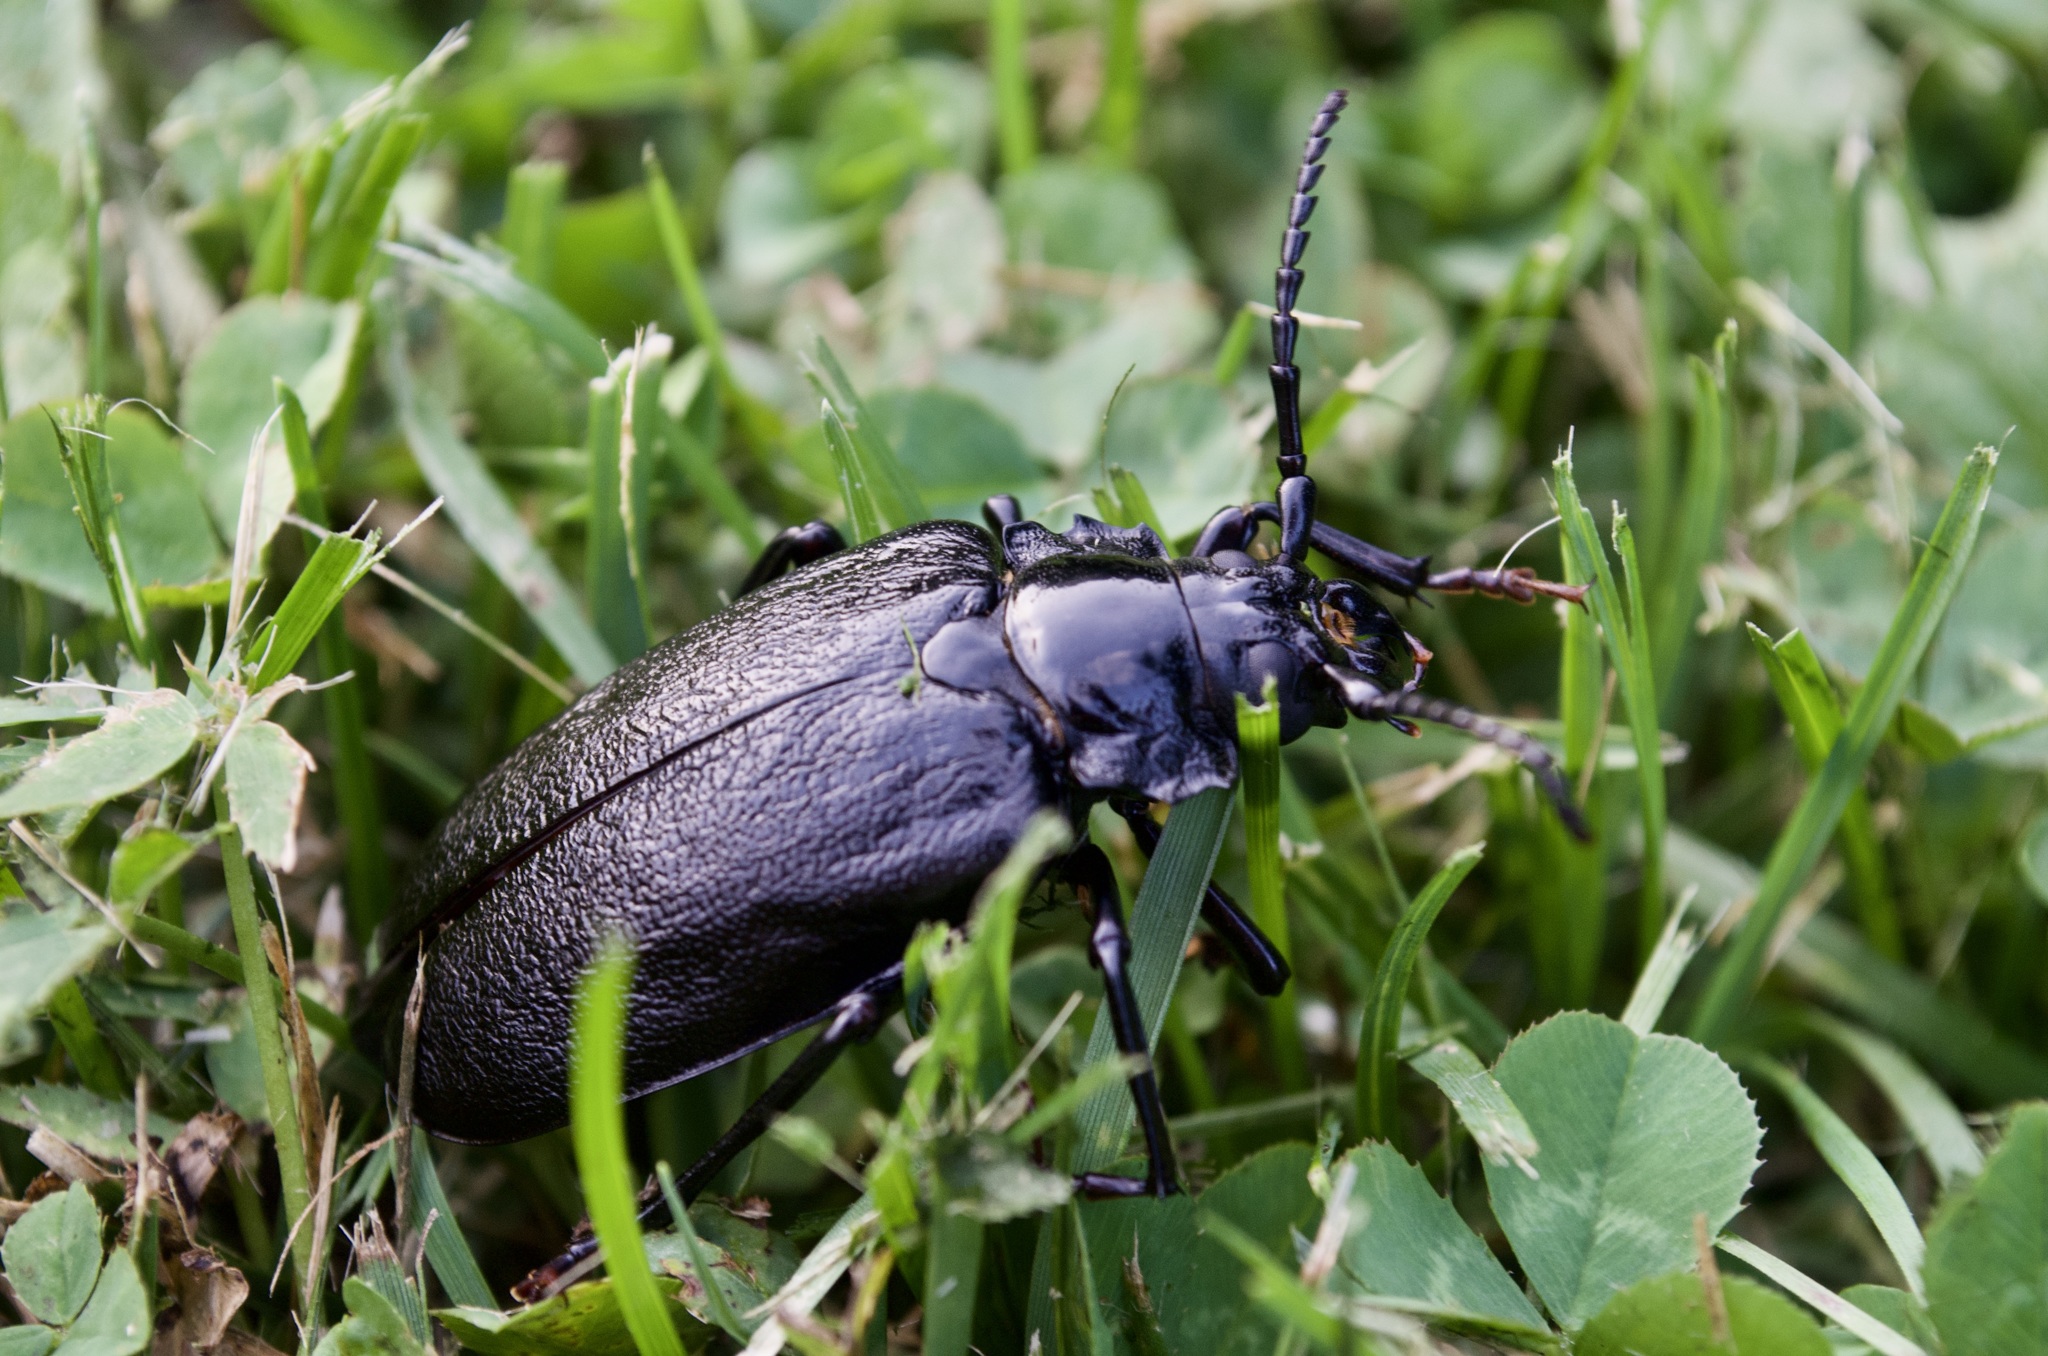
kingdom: Animalia
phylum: Arthropoda
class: Insecta
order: Coleoptera
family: Cerambycidae
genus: Prionus
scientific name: Prionus laticollis
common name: Broad necked prionus
